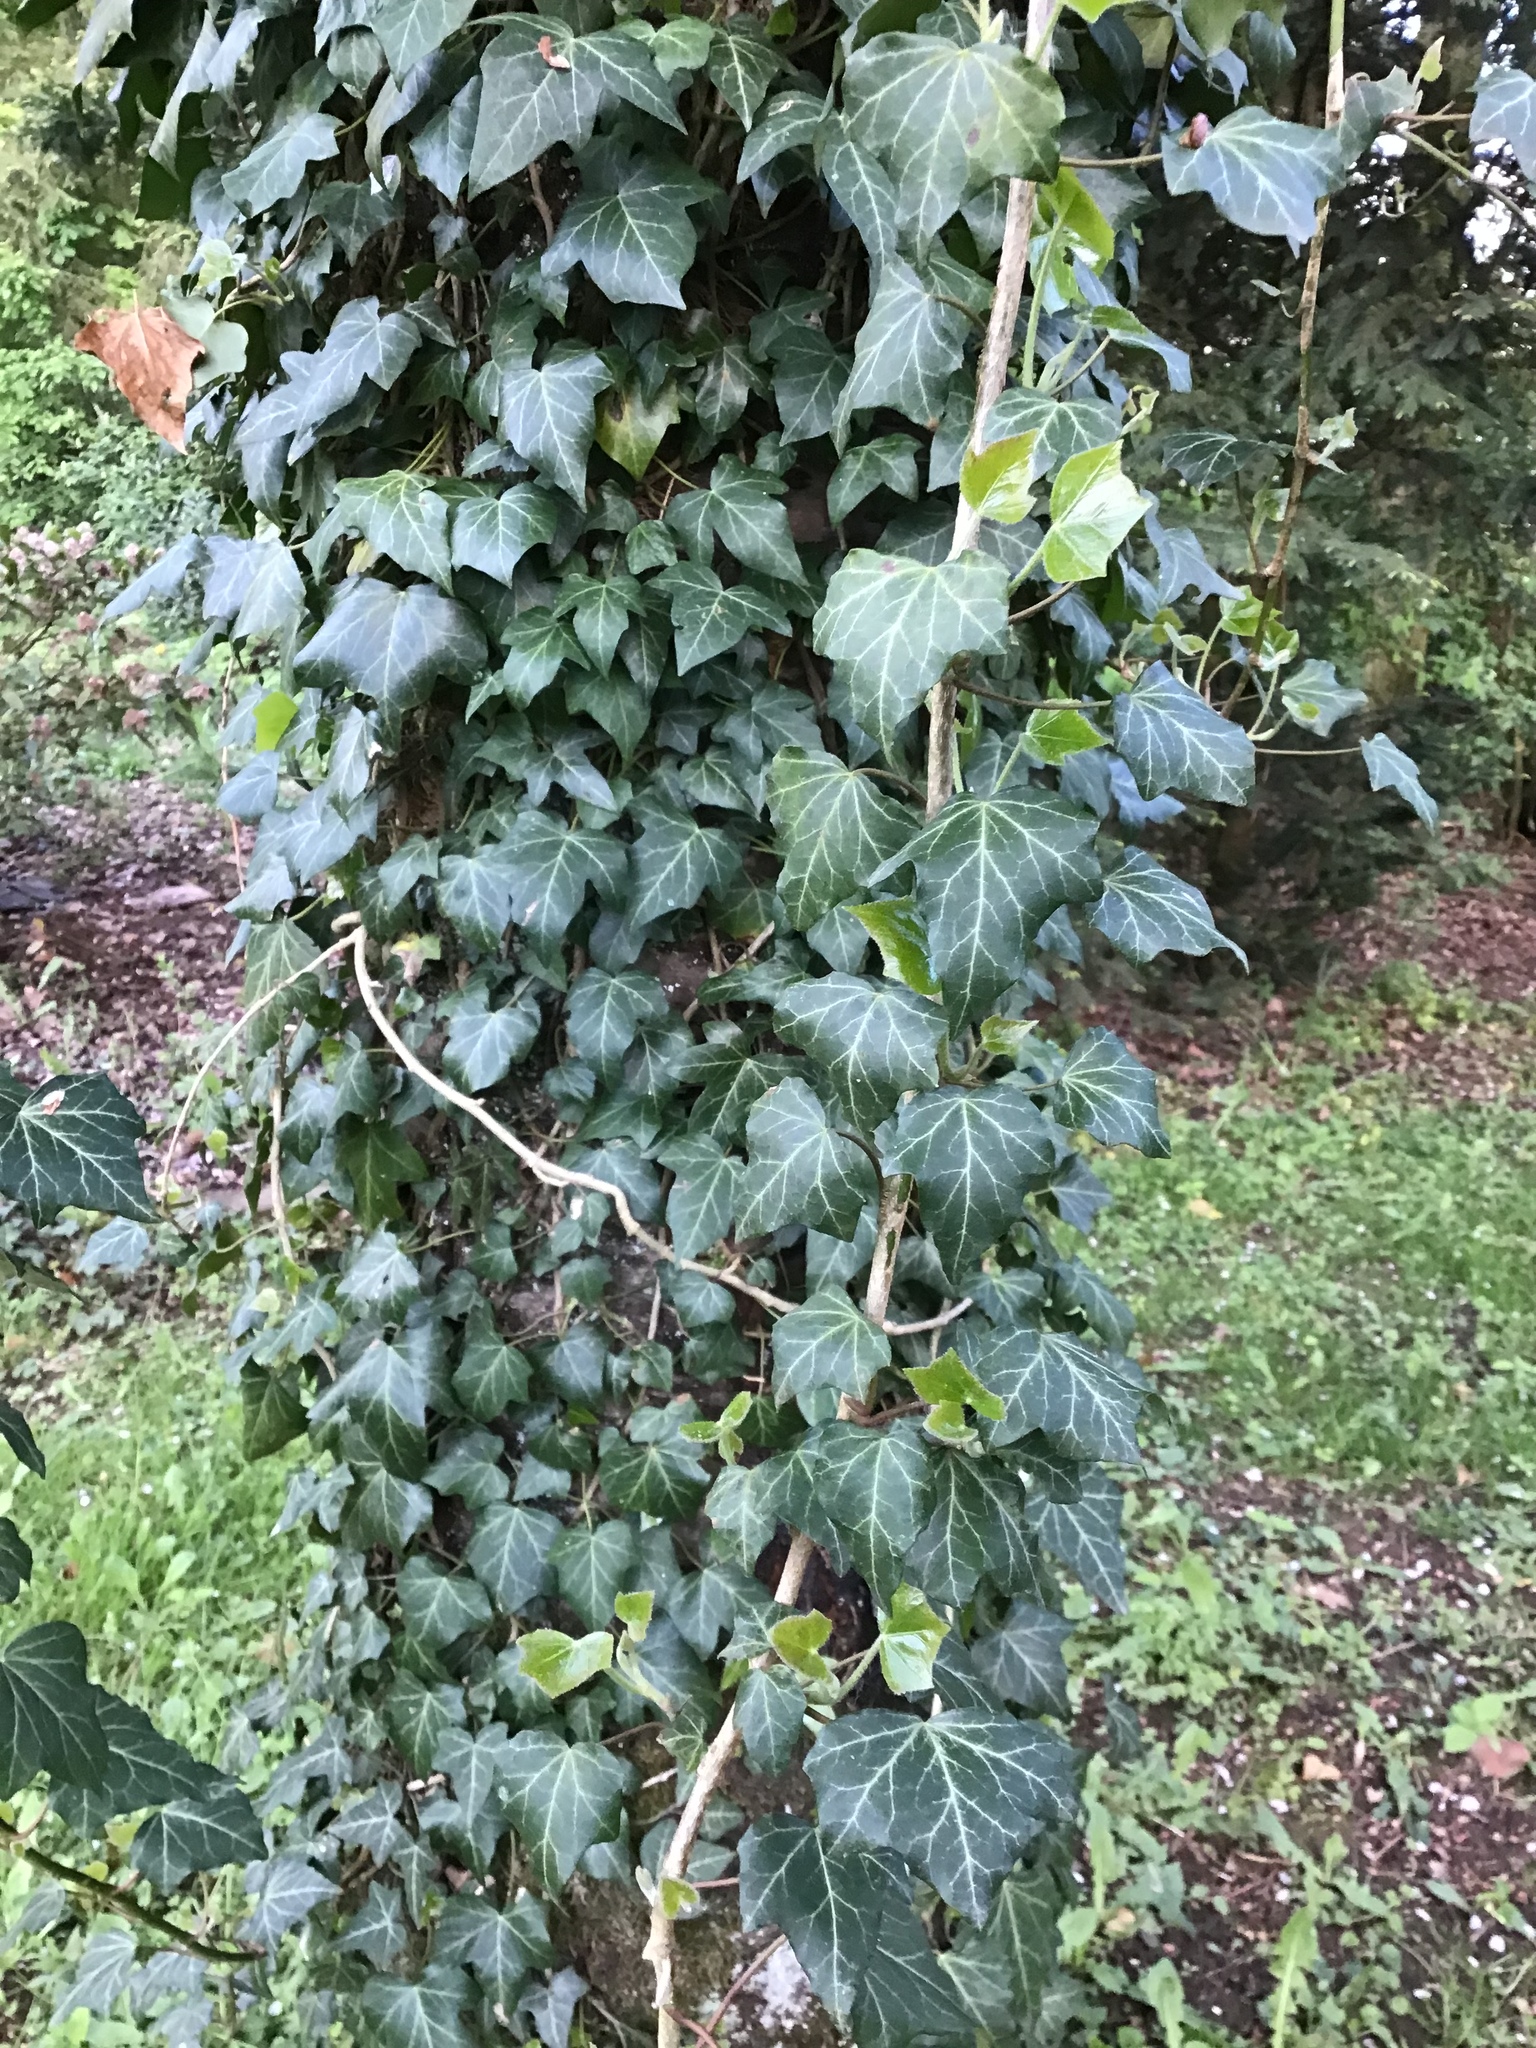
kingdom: Plantae
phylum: Tracheophyta
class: Magnoliopsida
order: Apiales
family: Araliaceae
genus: Hedera
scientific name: Hedera helix
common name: Ivy
